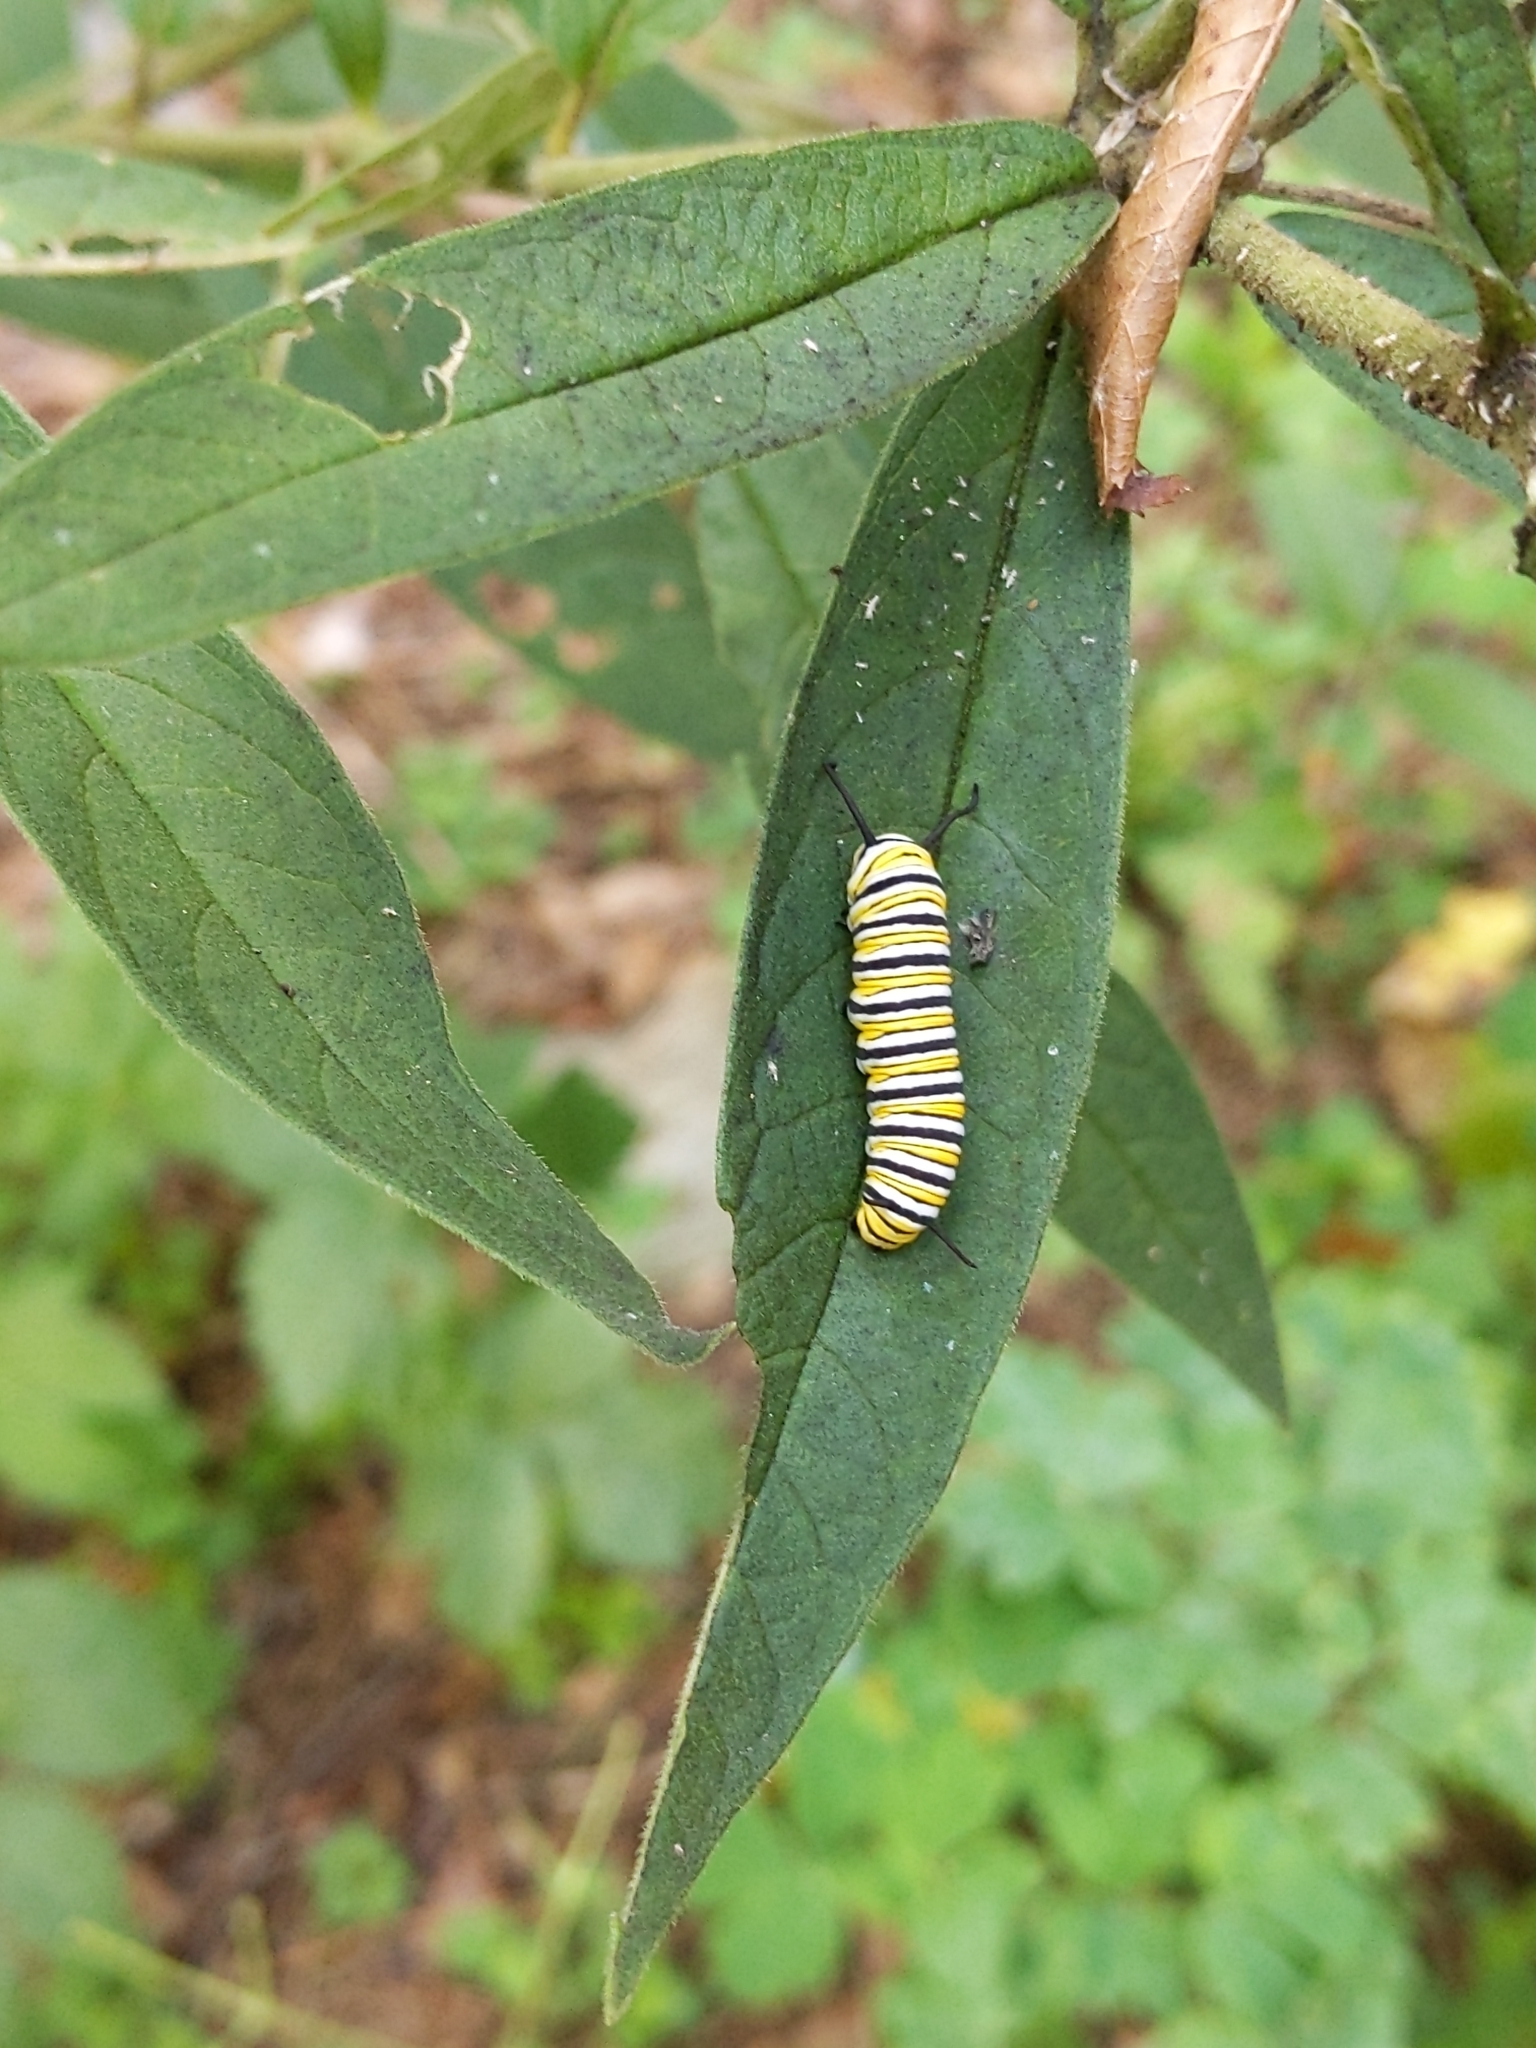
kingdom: Animalia
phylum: Arthropoda
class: Insecta
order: Lepidoptera
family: Nymphalidae
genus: Danaus
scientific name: Danaus plexippus
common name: Monarch
